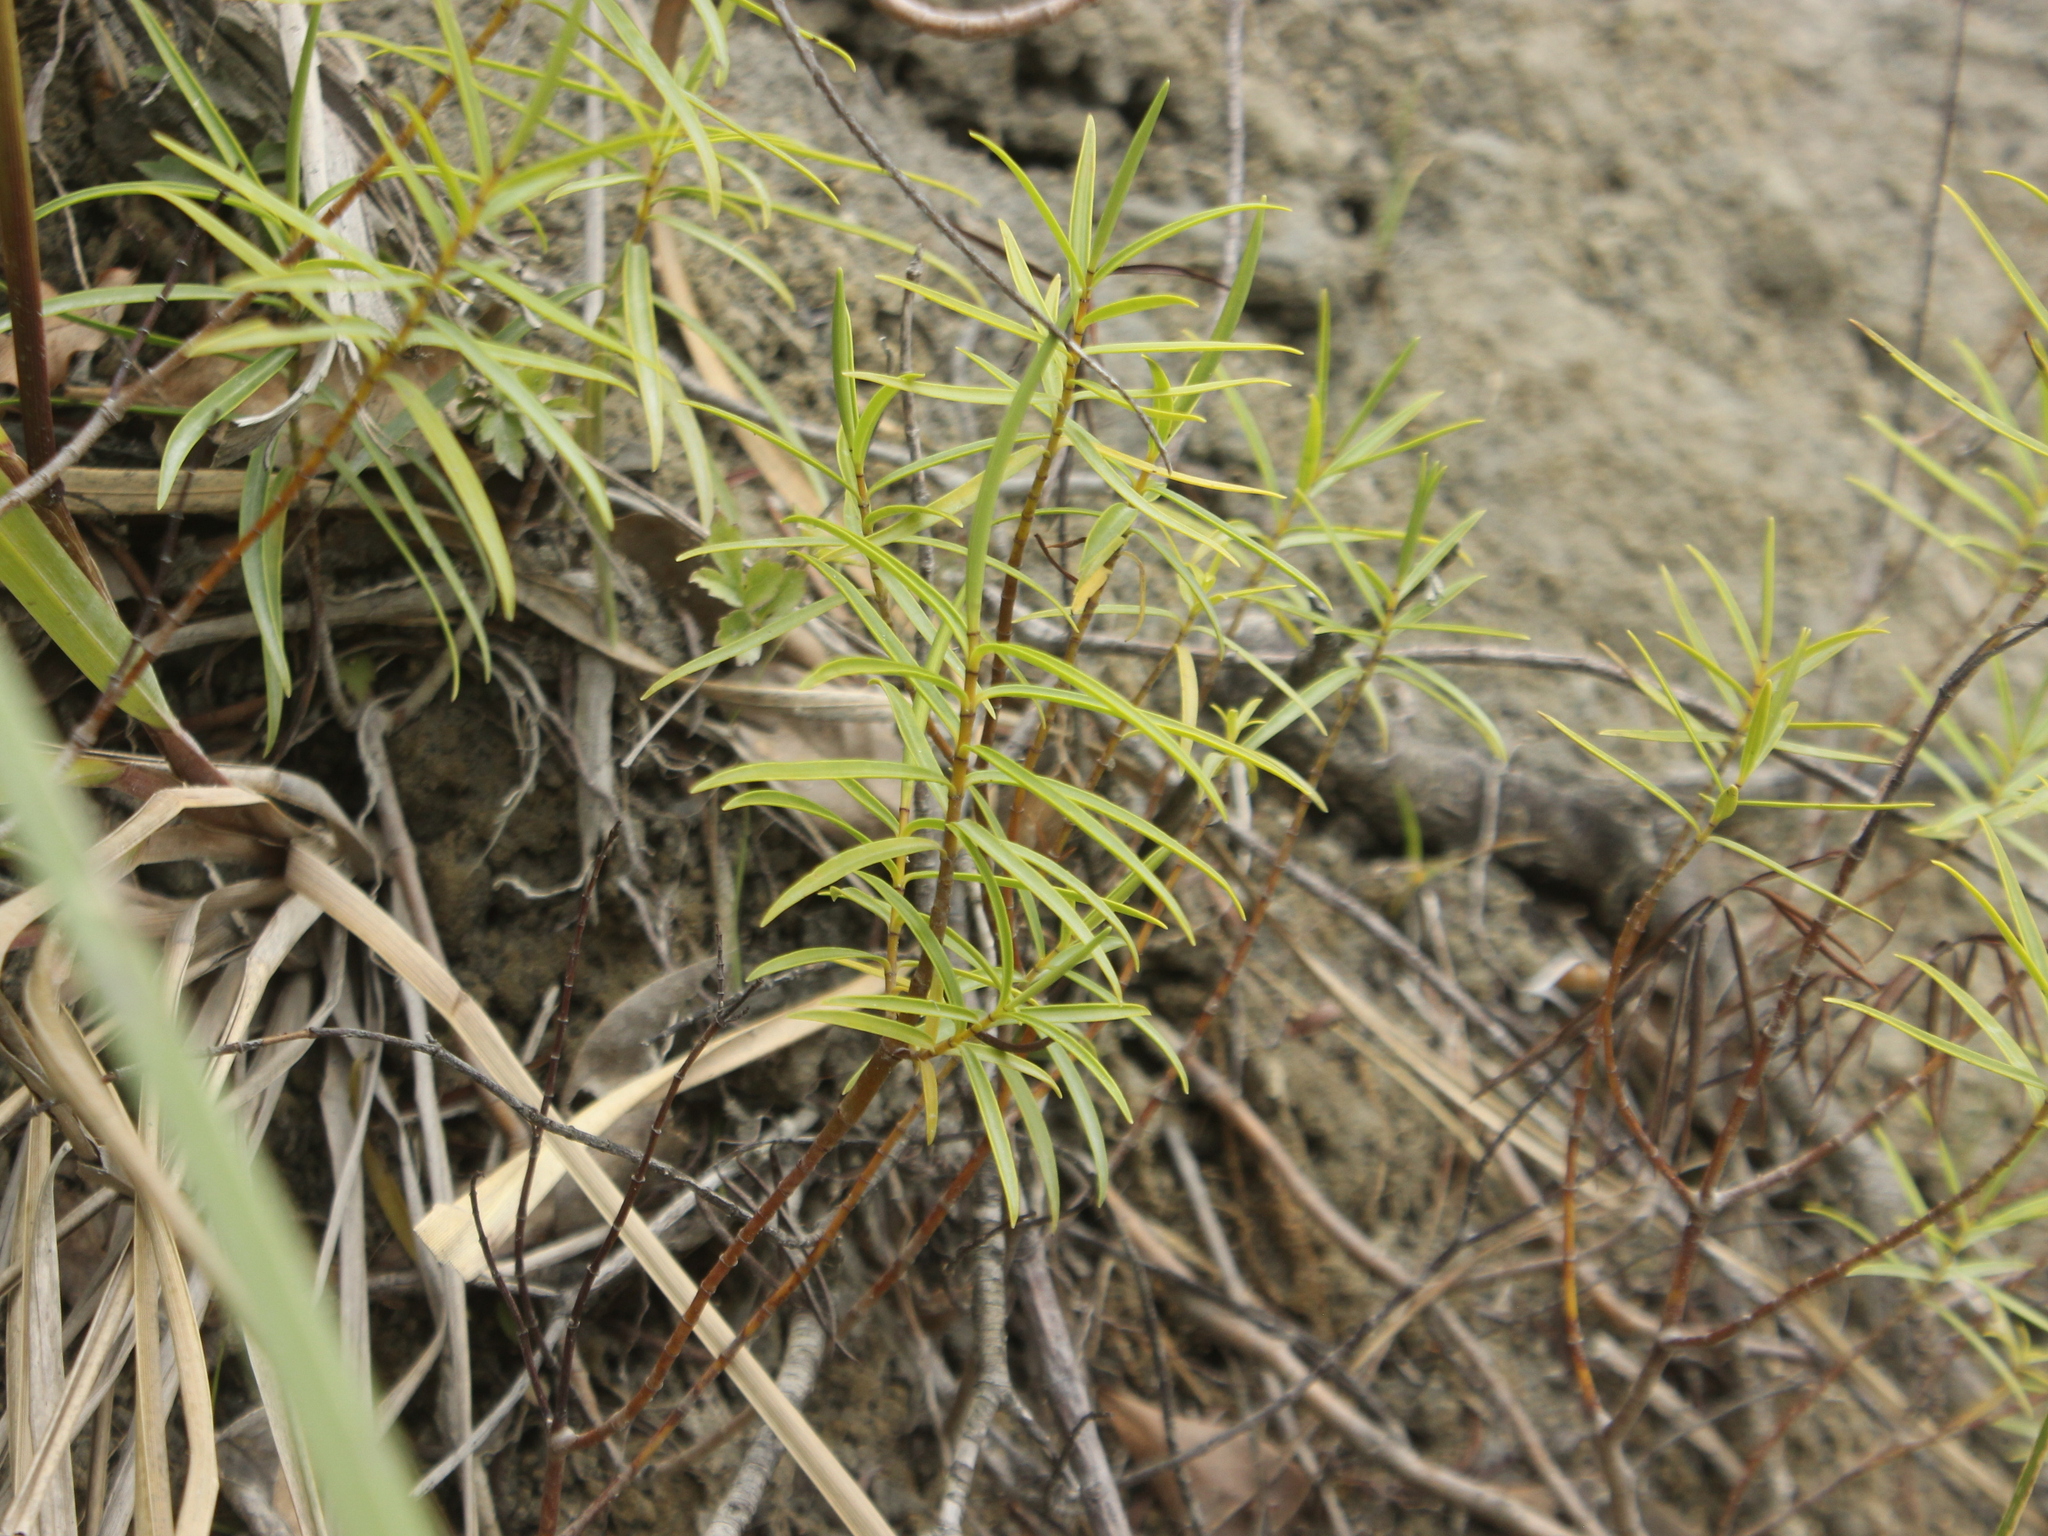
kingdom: Plantae
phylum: Tracheophyta
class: Magnoliopsida
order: Lamiales
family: Plantaginaceae
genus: Veronica
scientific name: Veronica stenophylla
